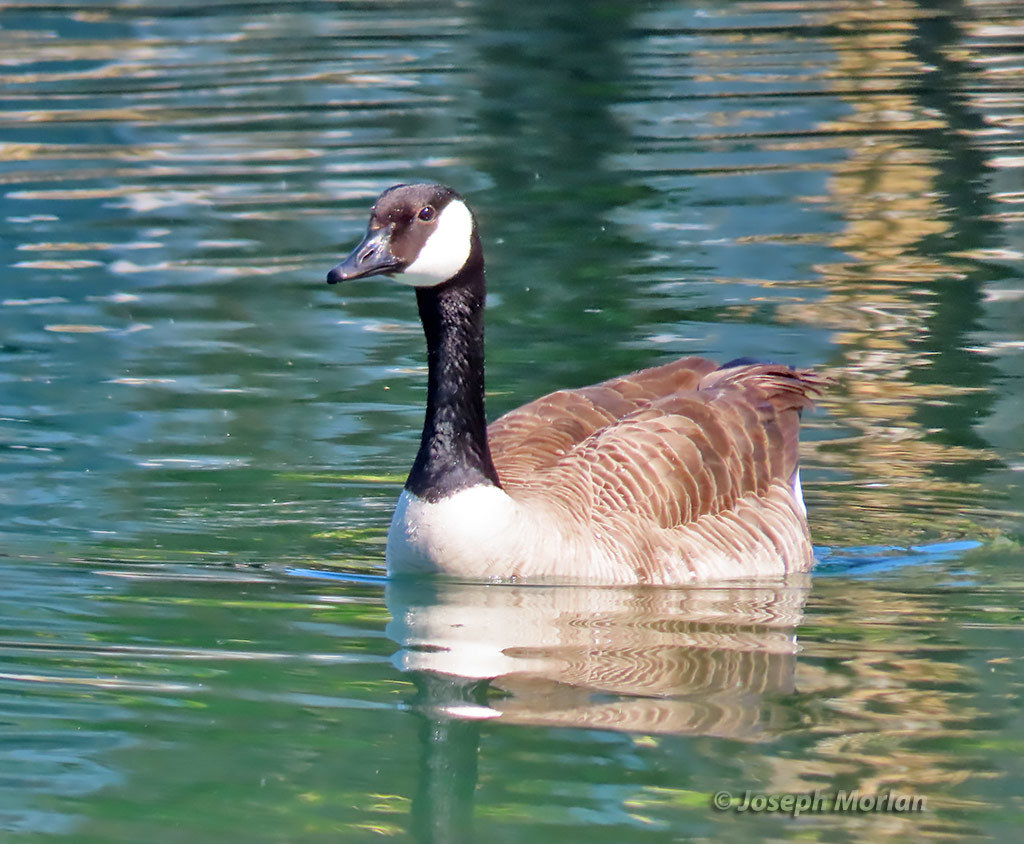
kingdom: Animalia
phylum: Chordata
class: Aves
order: Anseriformes
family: Anatidae
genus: Branta
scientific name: Branta canadensis
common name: Canada goose
